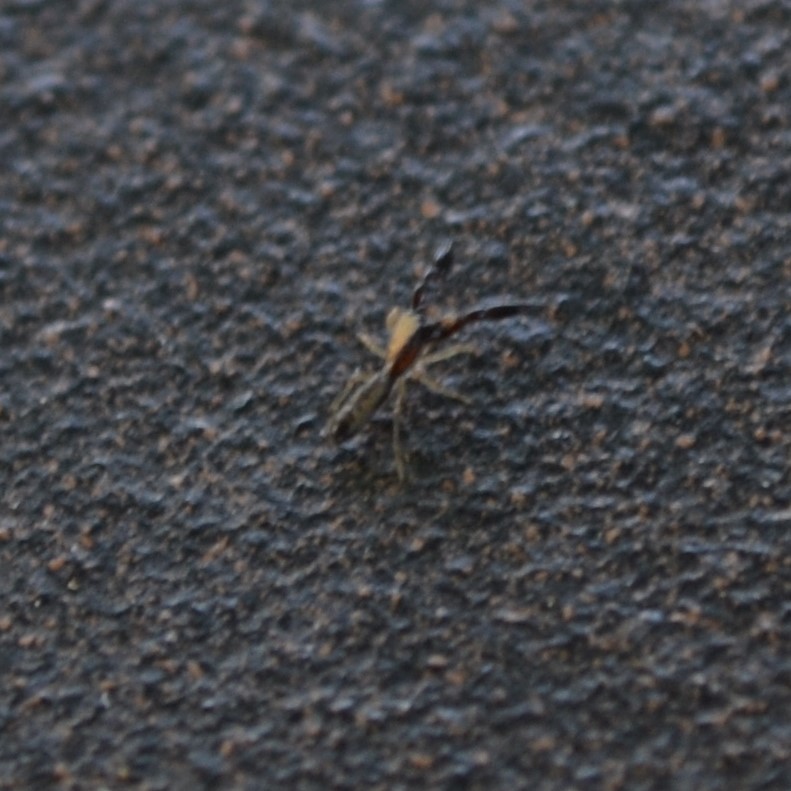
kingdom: Animalia
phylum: Arthropoda
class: Arachnida
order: Araneae
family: Salticidae
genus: Cheliferoides
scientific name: Cheliferoides longimanus
